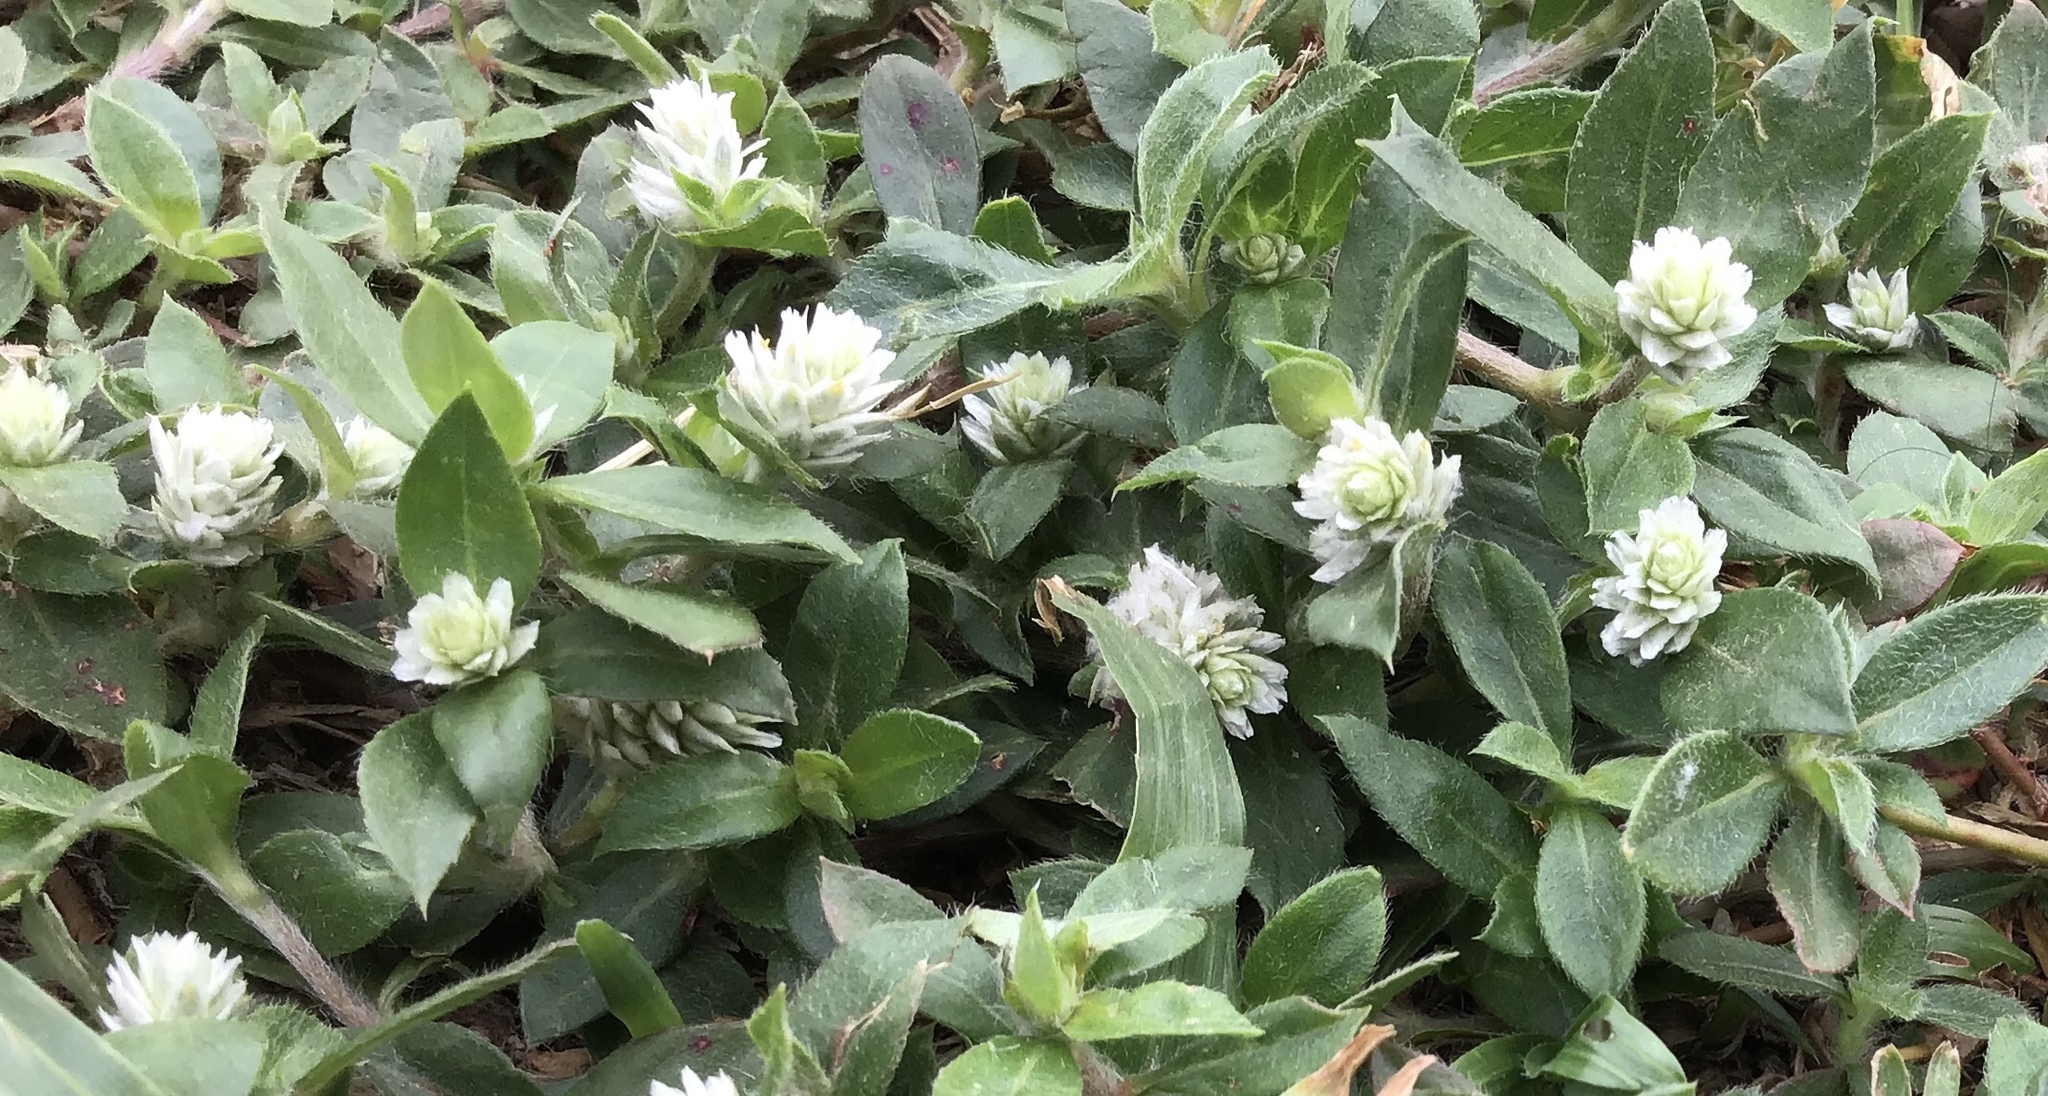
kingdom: Plantae
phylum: Tracheophyta
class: Magnoliopsida
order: Caryophyllales
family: Amaranthaceae
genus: Gomphrena
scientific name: Gomphrena celosioides
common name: Gomphrena-weed
